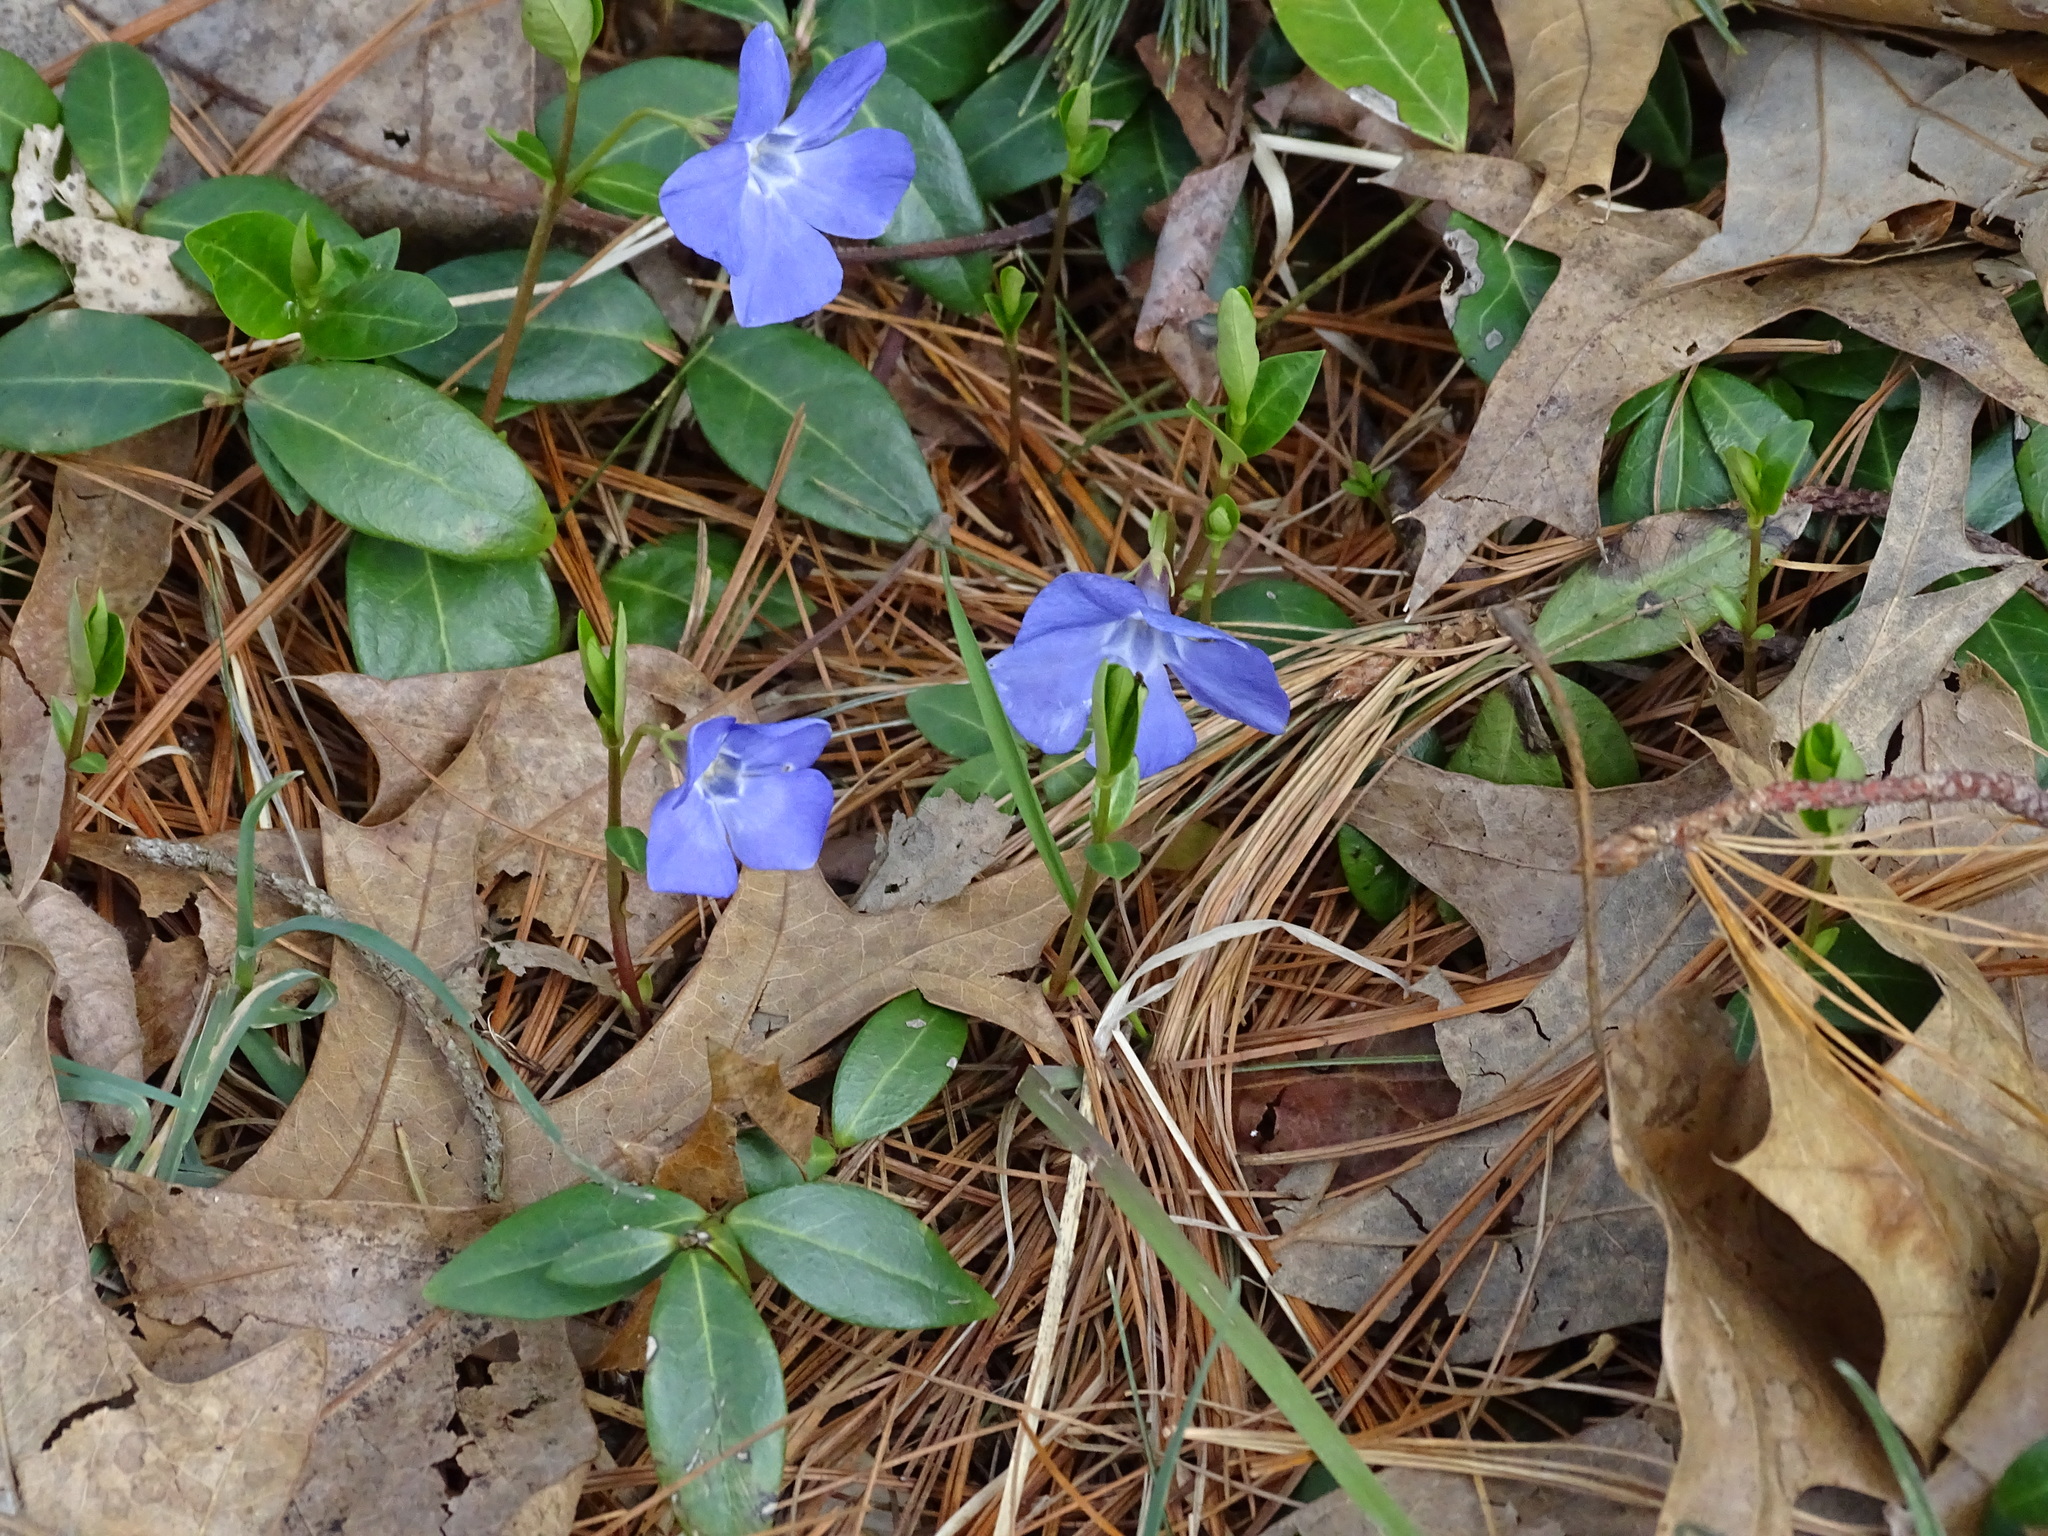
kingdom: Plantae
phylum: Tracheophyta
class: Magnoliopsida
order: Gentianales
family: Apocynaceae
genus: Vinca
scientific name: Vinca minor
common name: Lesser periwinkle
